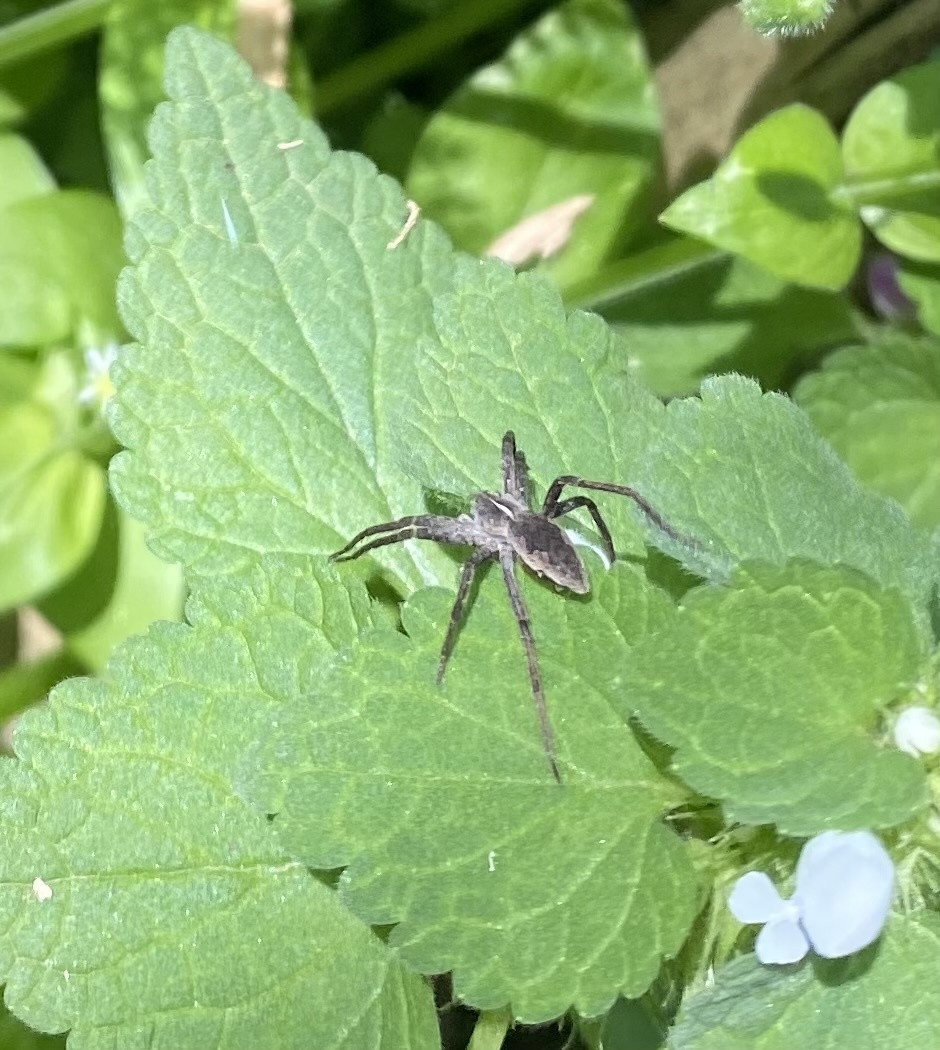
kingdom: Animalia
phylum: Arthropoda
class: Arachnida
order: Araneae
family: Pisauridae
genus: Pisaura
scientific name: Pisaura
